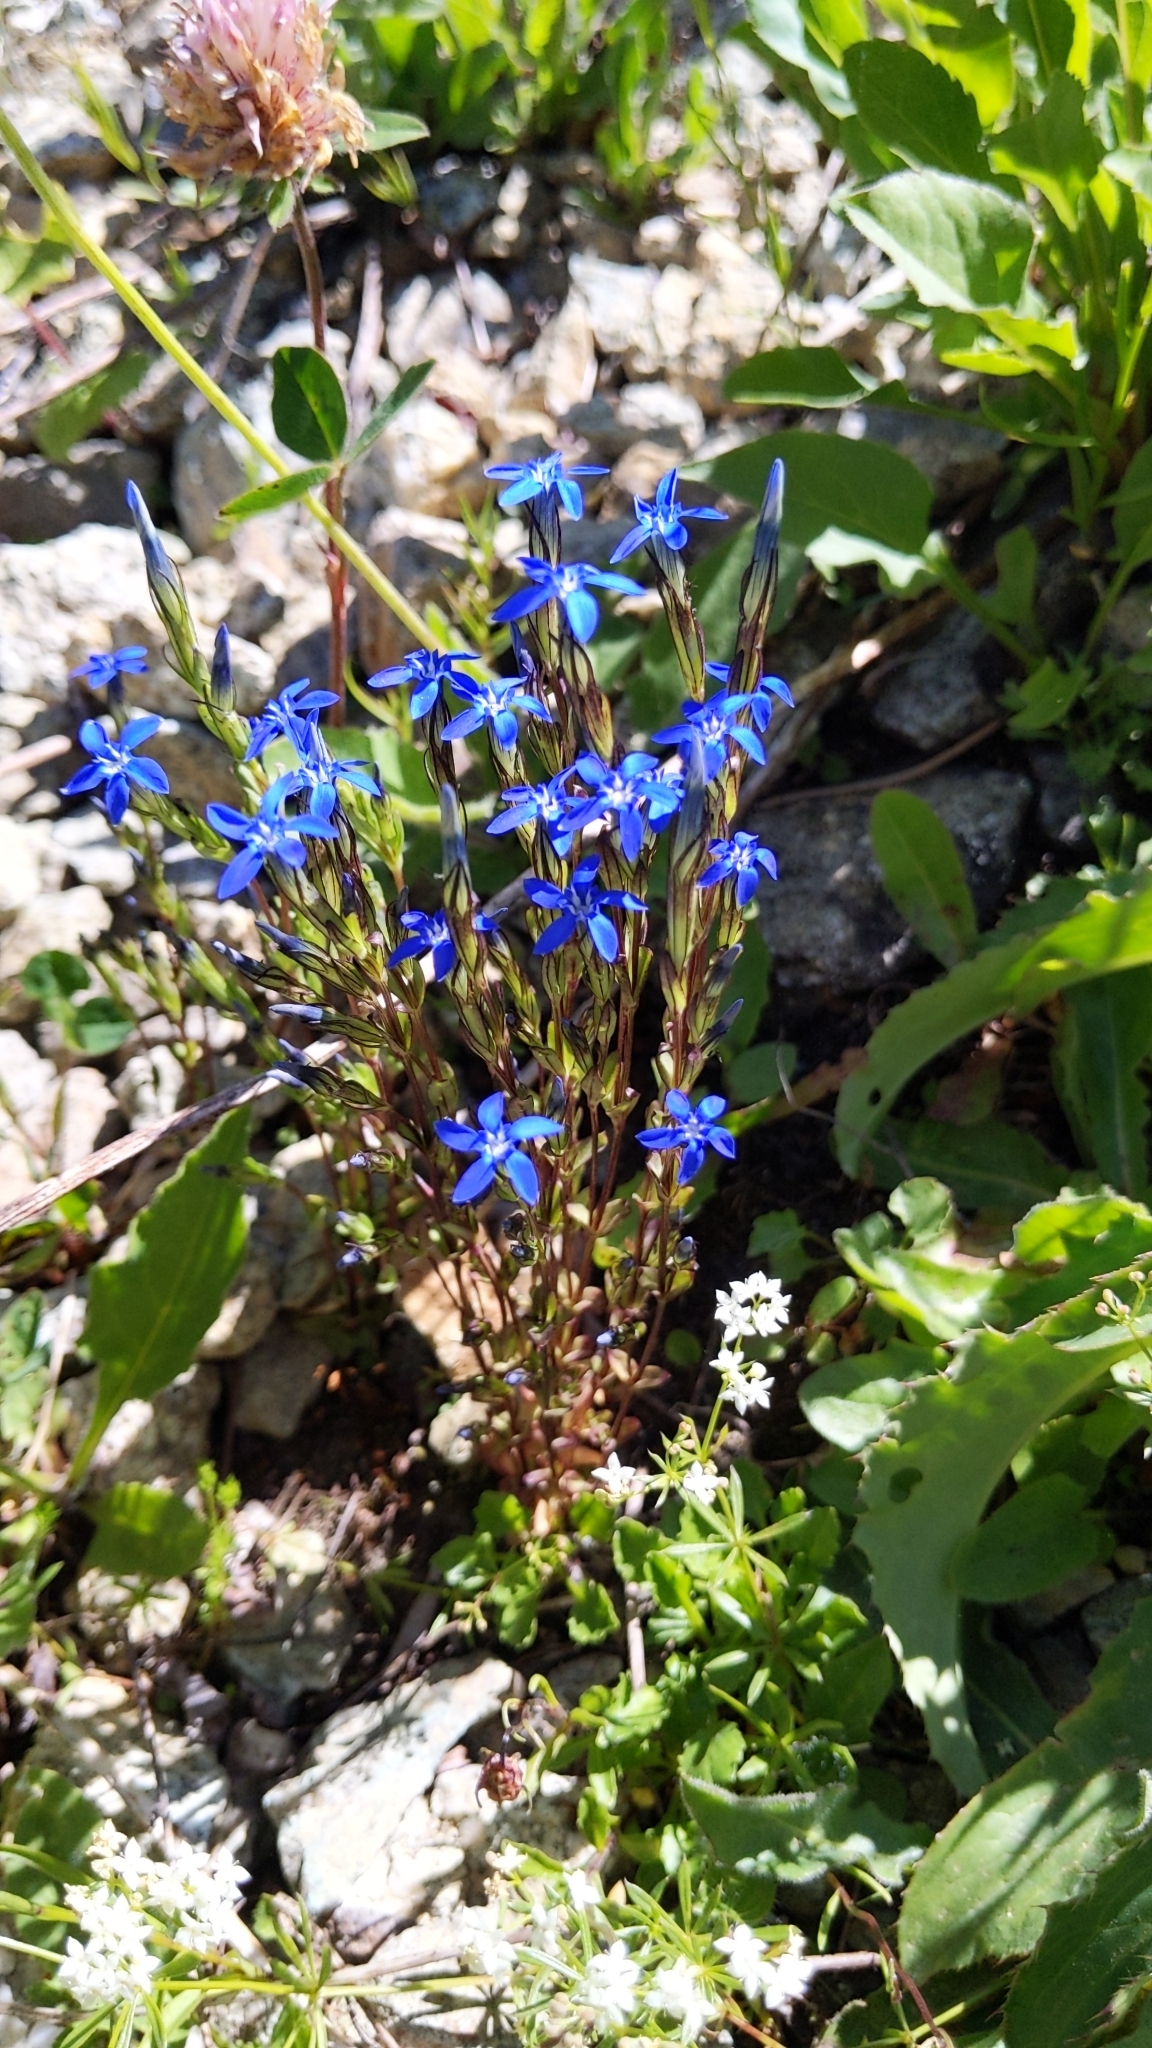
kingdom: Plantae
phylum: Tracheophyta
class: Magnoliopsida
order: Gentianales
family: Gentianaceae
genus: Gentiana
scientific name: Gentiana nivalis
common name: Alpine gentian
